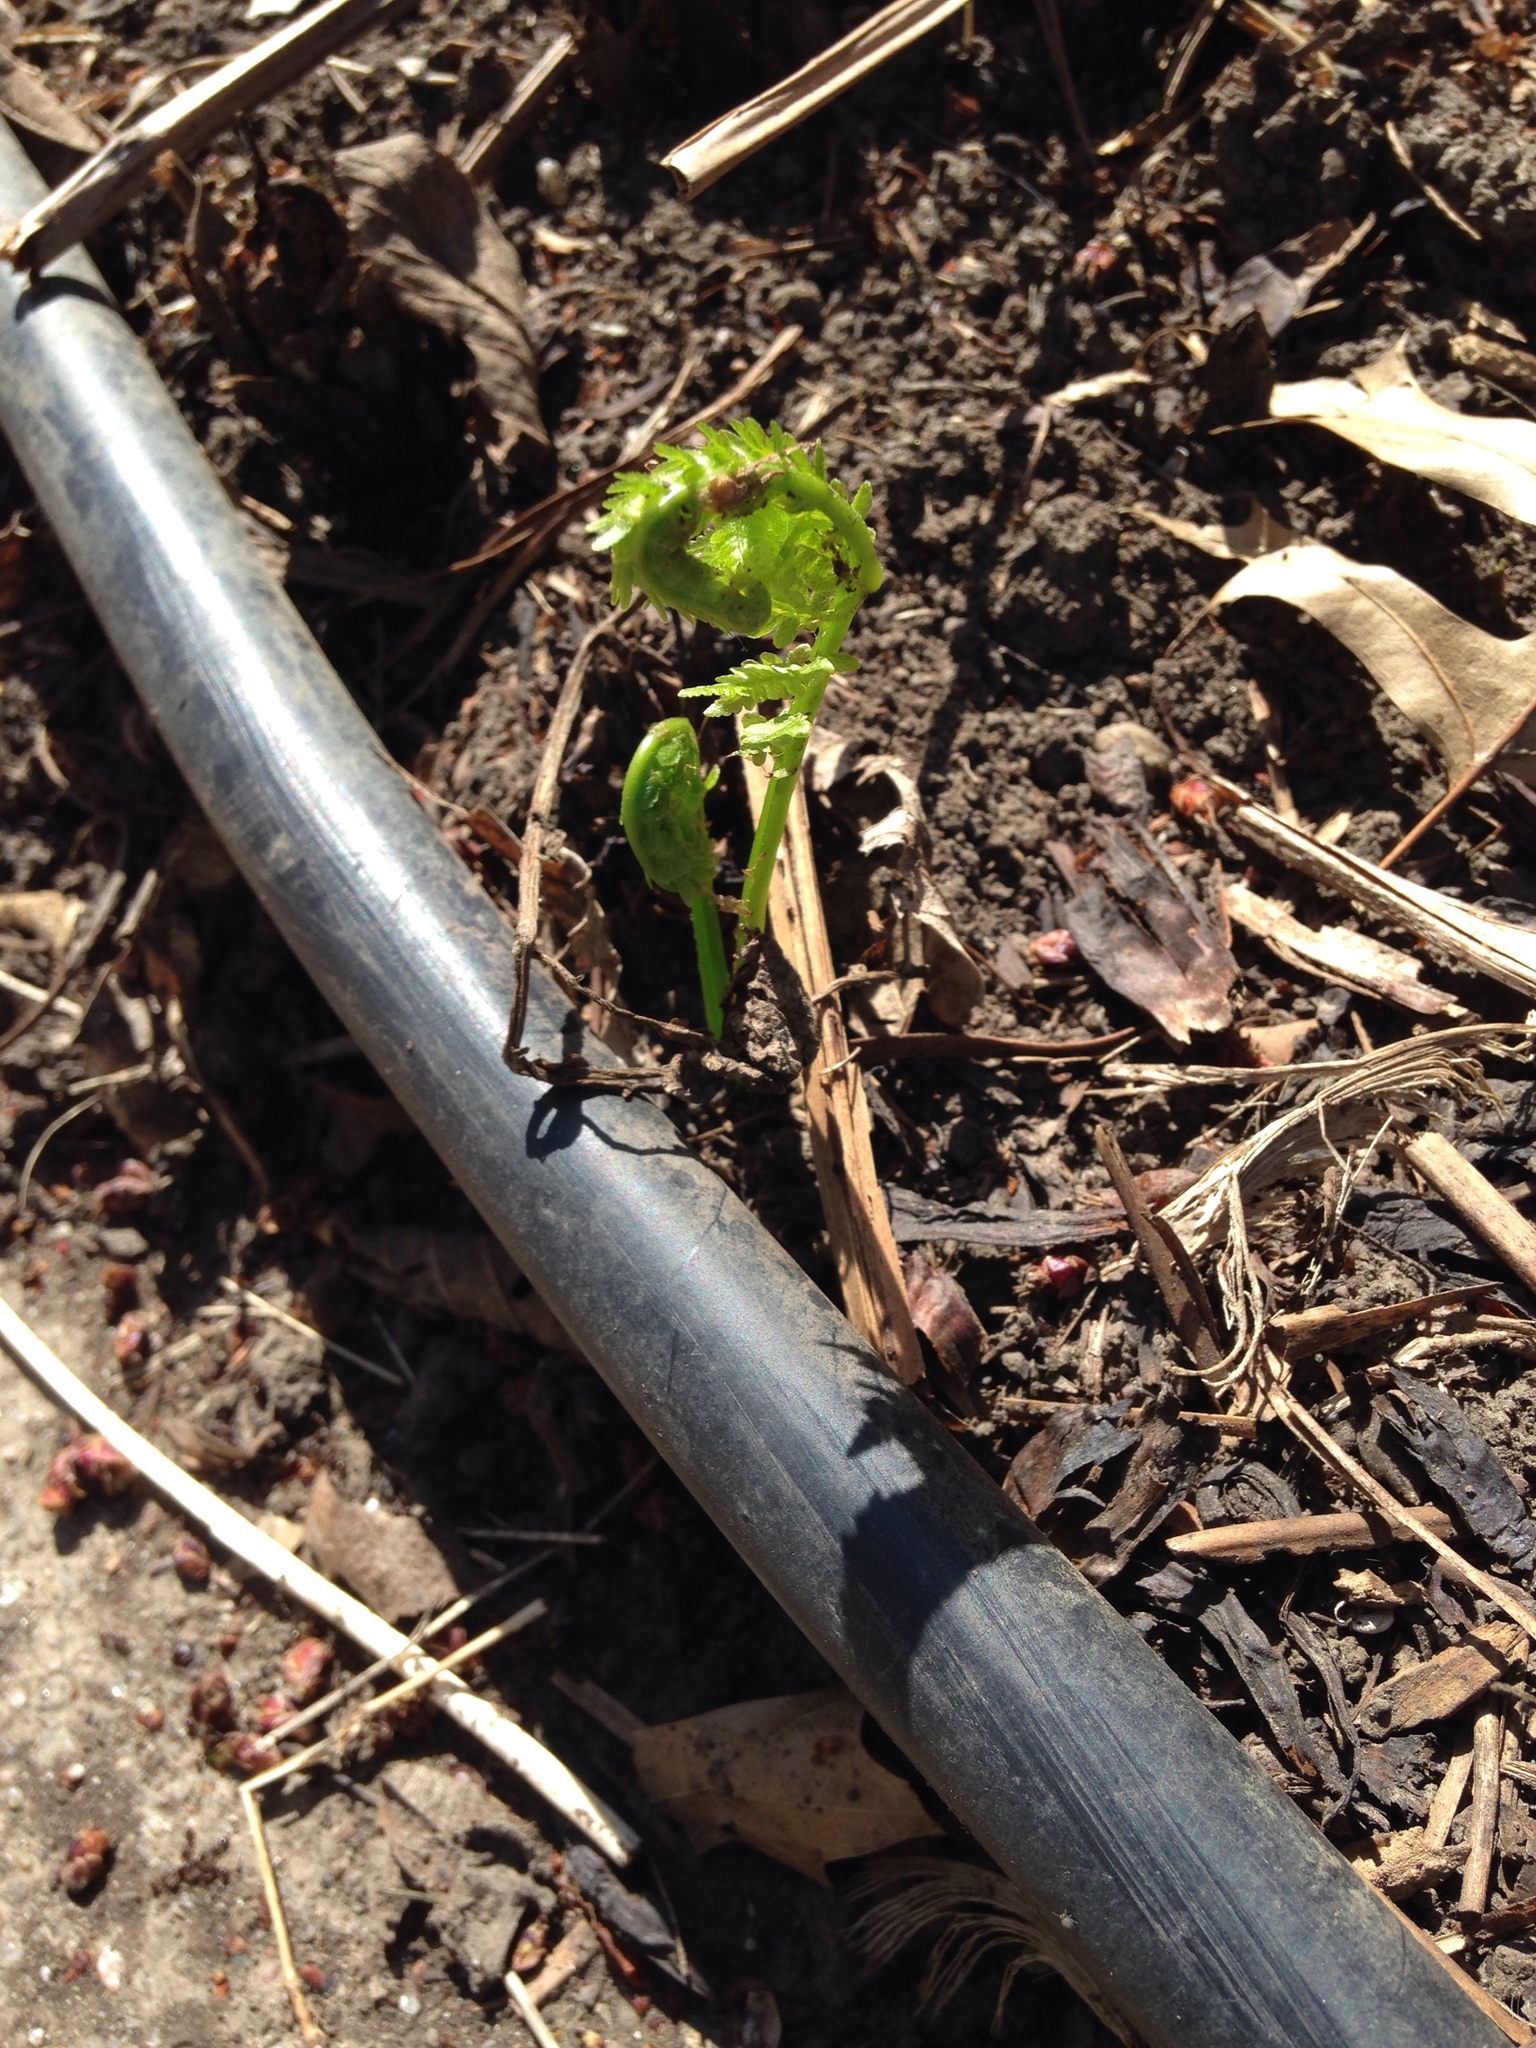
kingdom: Plantae
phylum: Tracheophyta
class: Polypodiopsida
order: Polypodiales
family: Onocleaceae
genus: Matteuccia
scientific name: Matteuccia struthiopteris
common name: Ostrich fern
